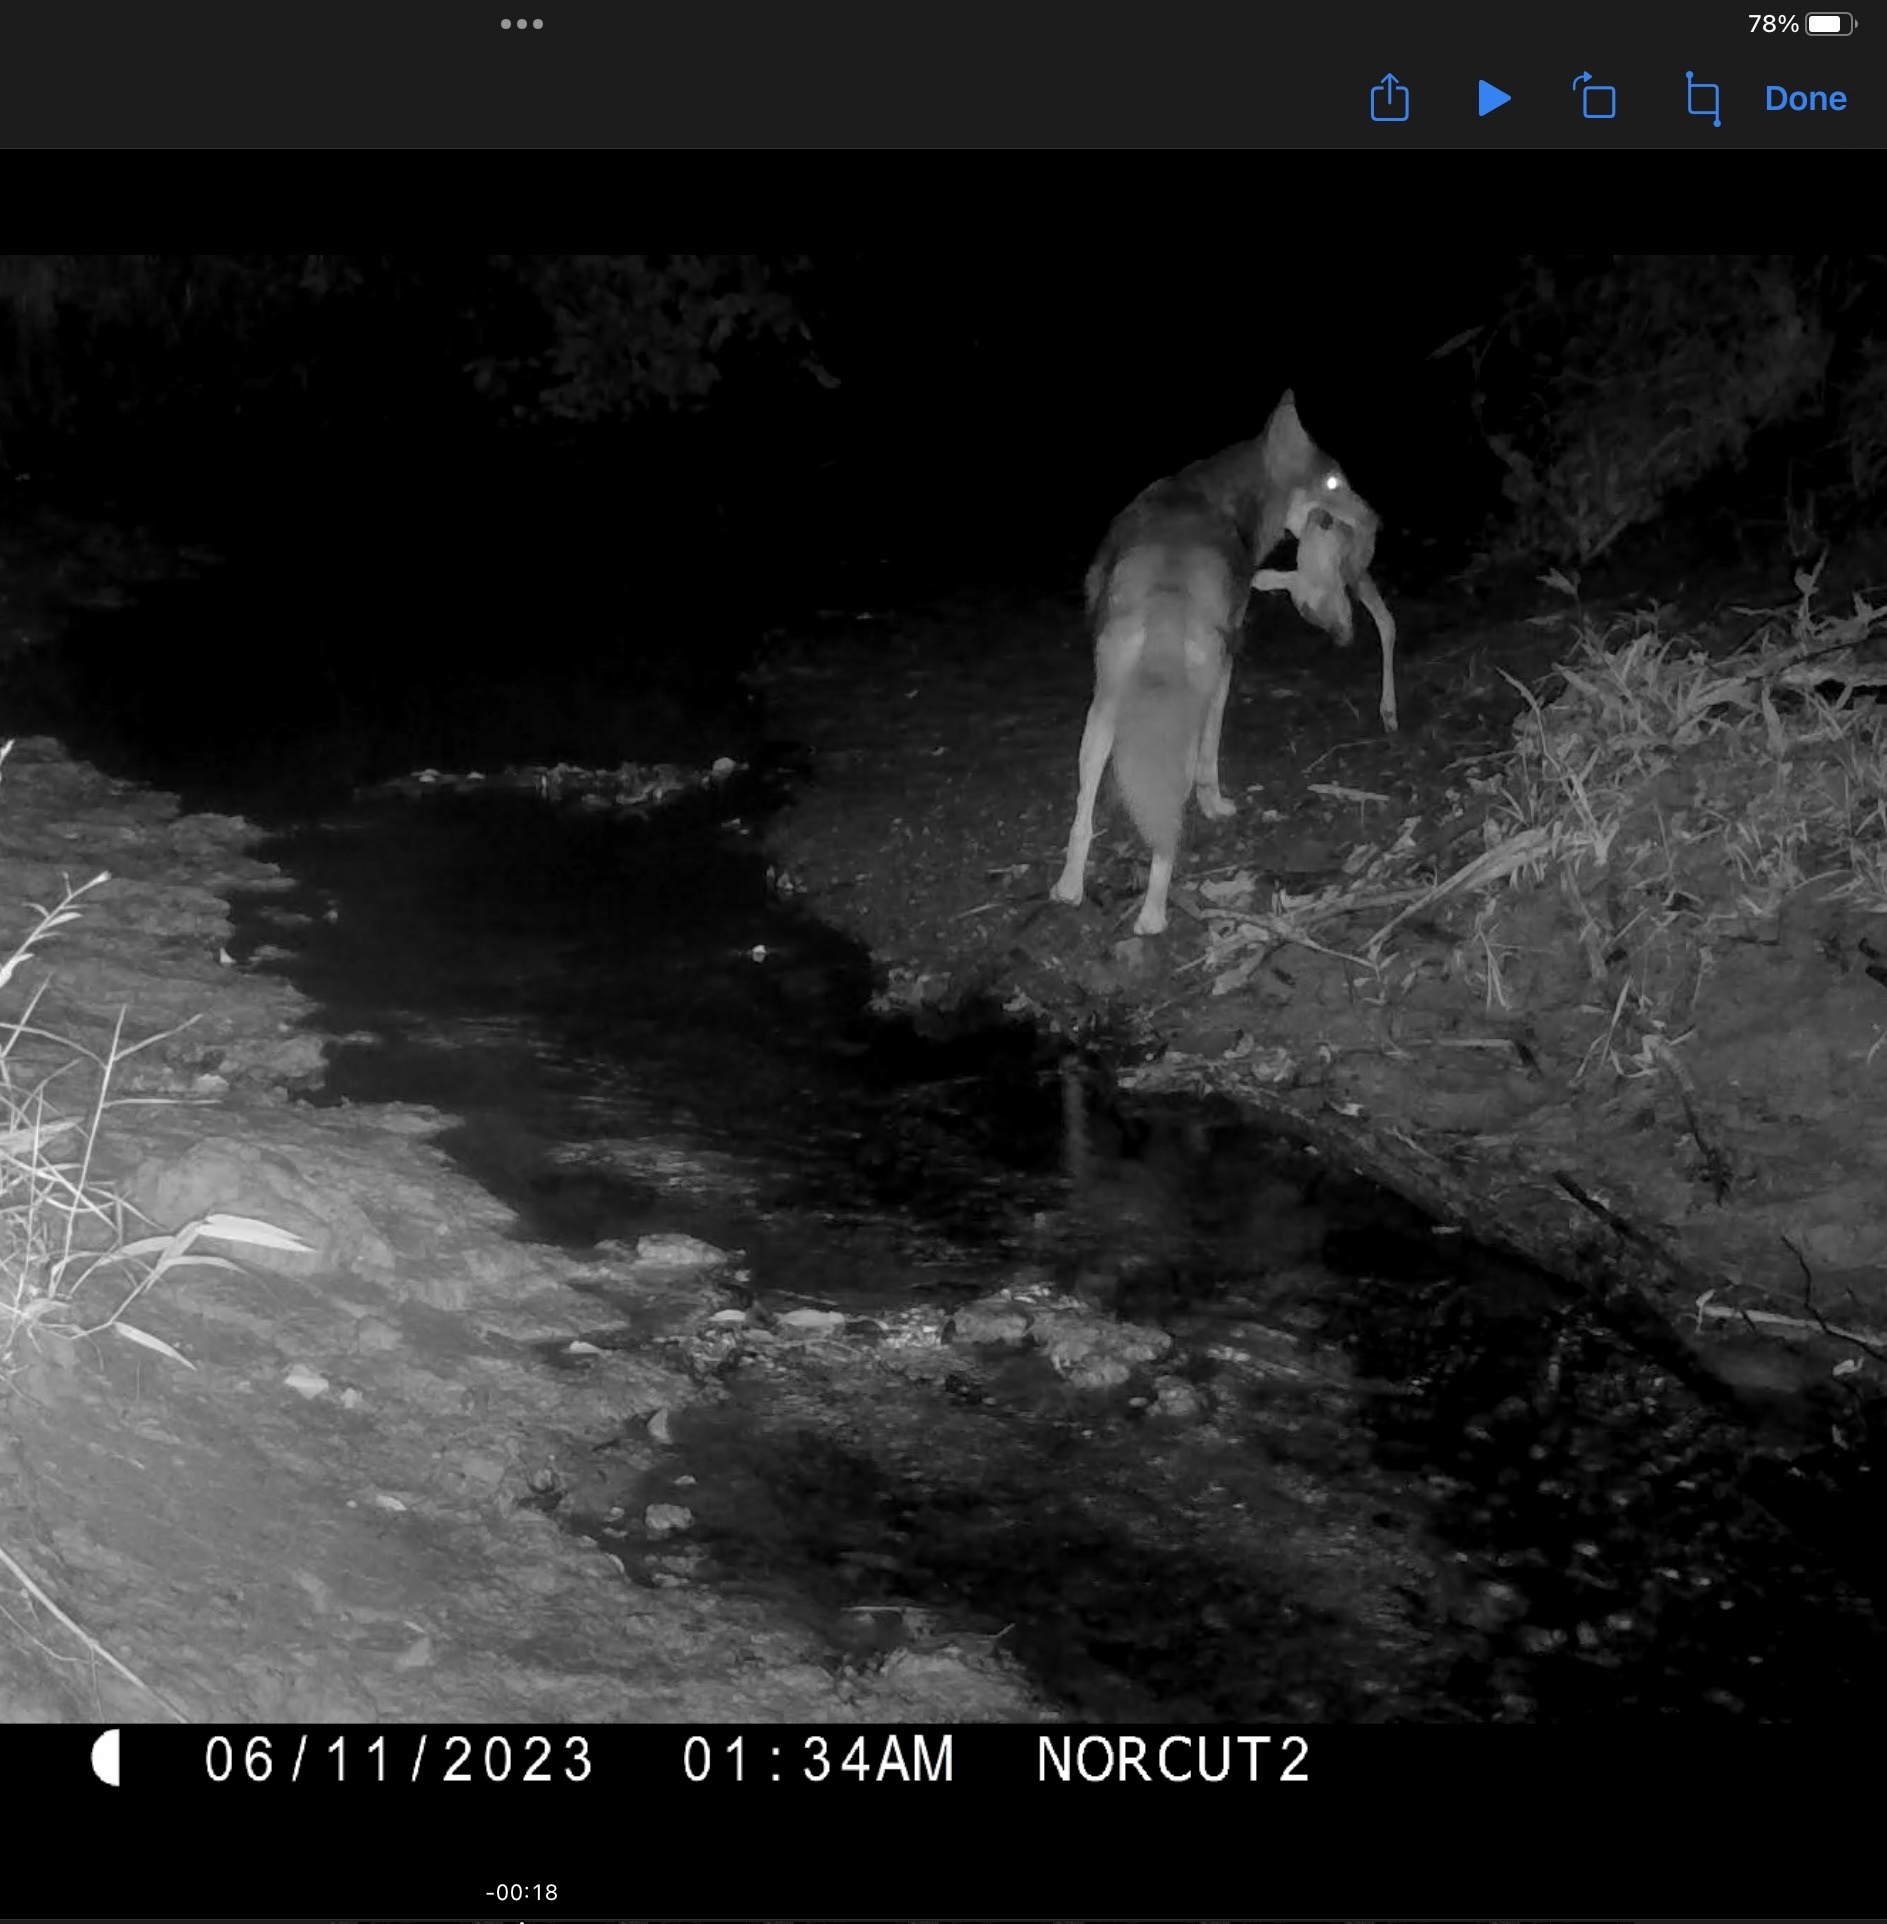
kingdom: Animalia
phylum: Chordata
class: Mammalia
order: Carnivora
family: Canidae
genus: Canis
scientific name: Canis latrans
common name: Coyote
